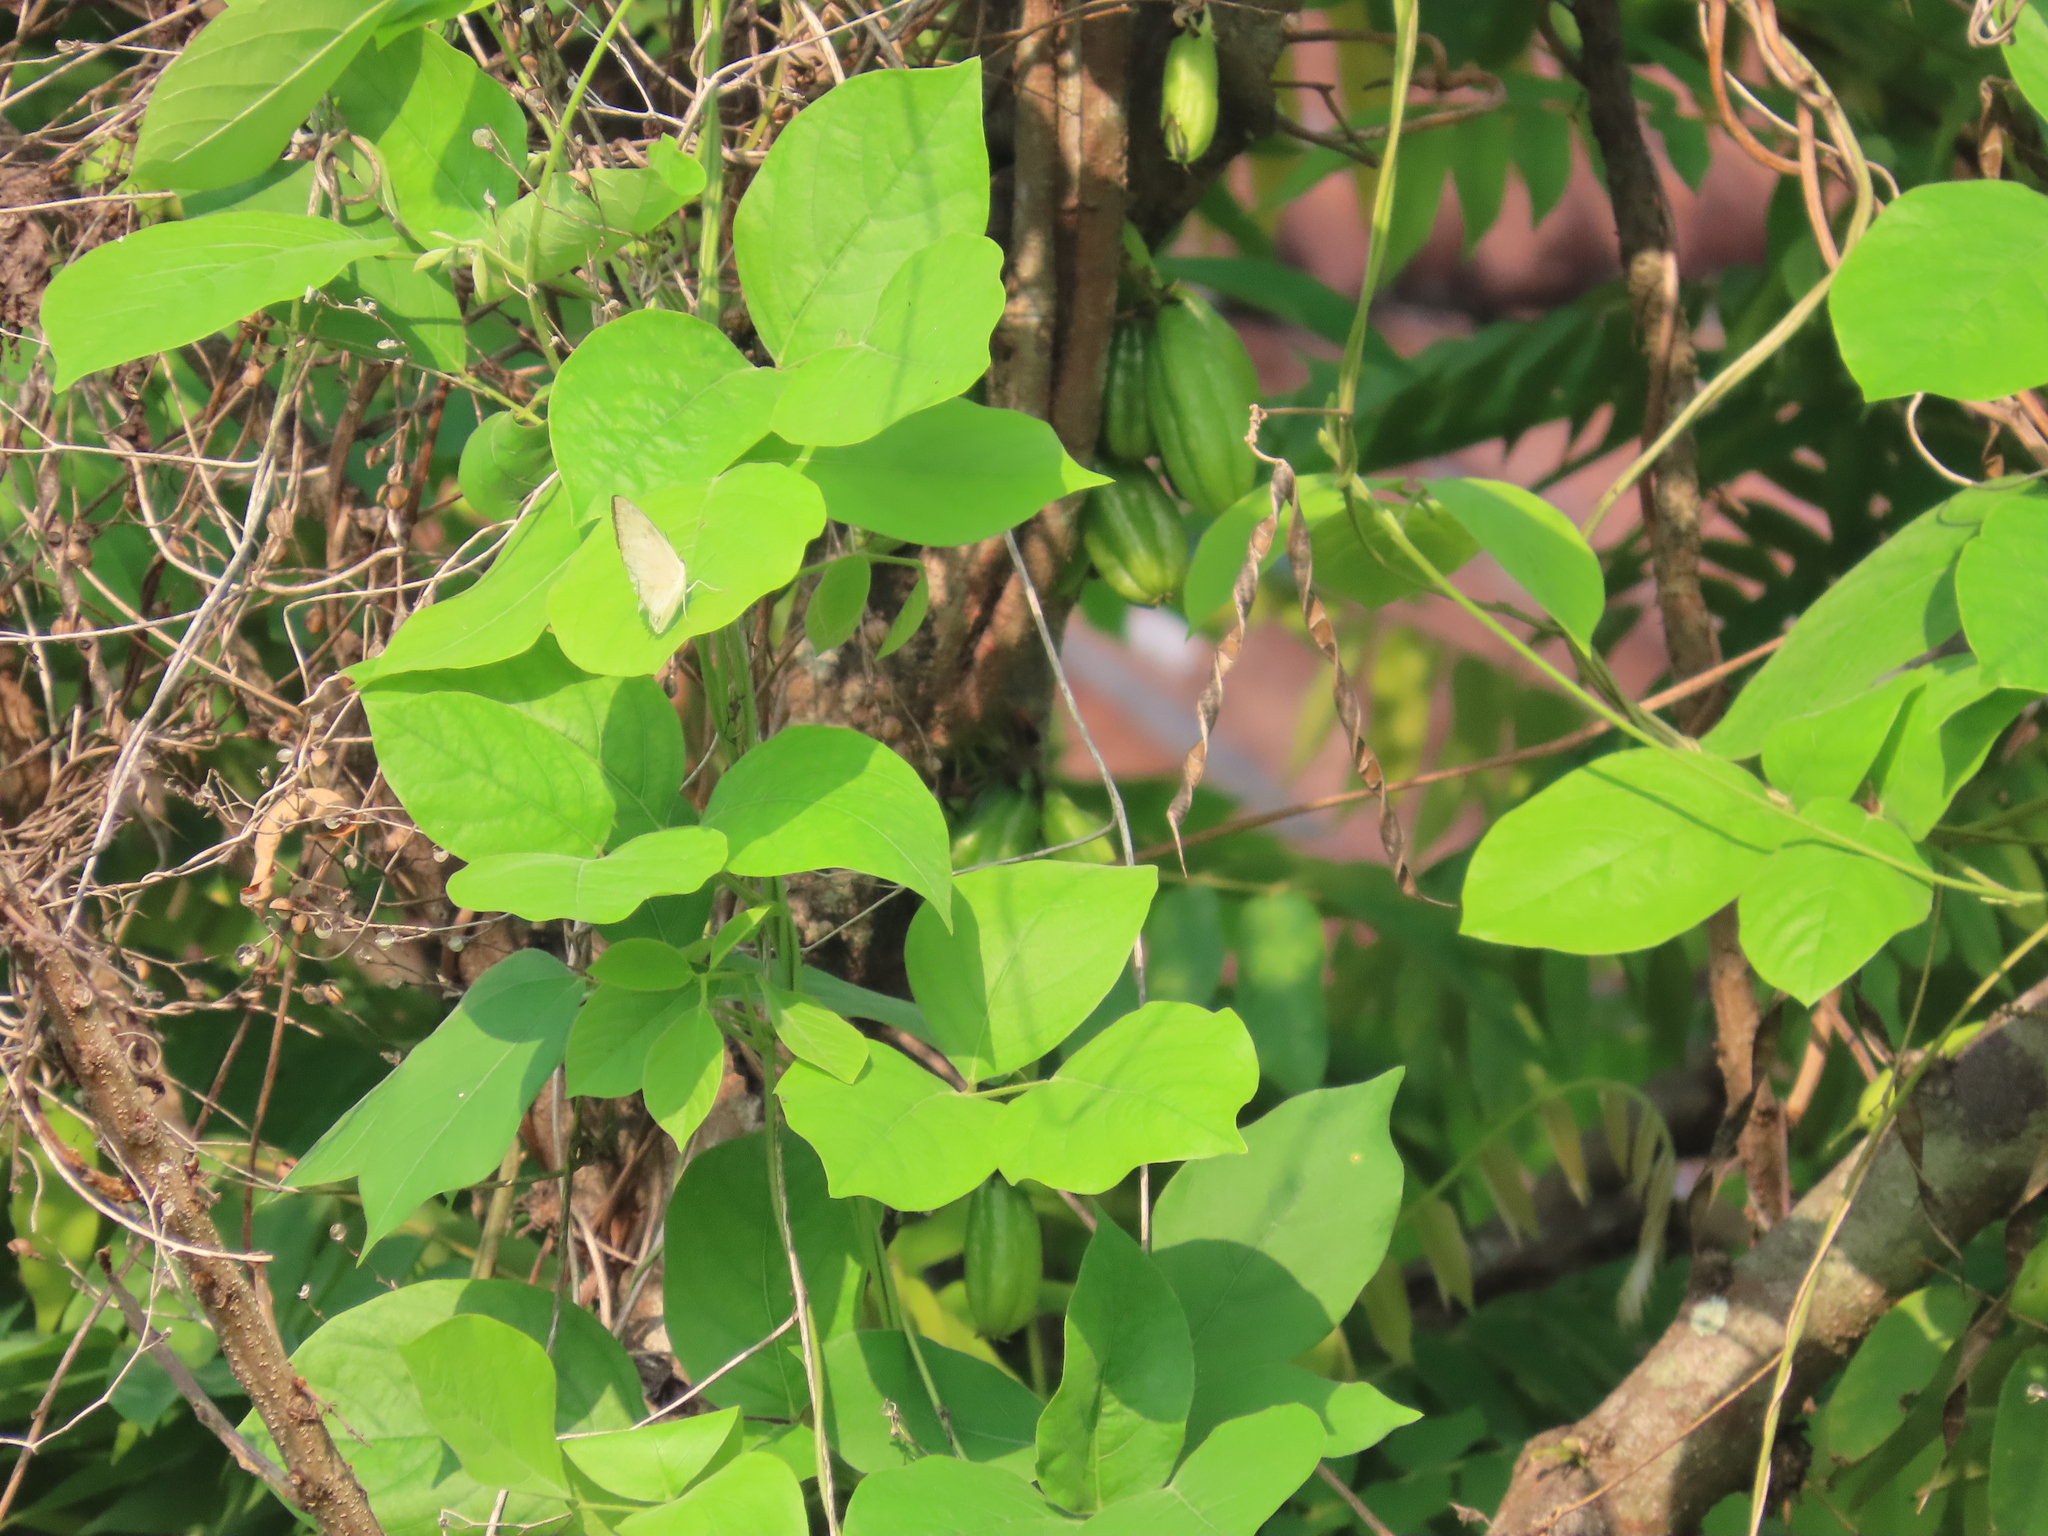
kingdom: Animalia
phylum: Arthropoda
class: Insecta
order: Lepidoptera
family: Pieridae
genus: Catopsilia
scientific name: Catopsilia pomona
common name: Common emigrant
